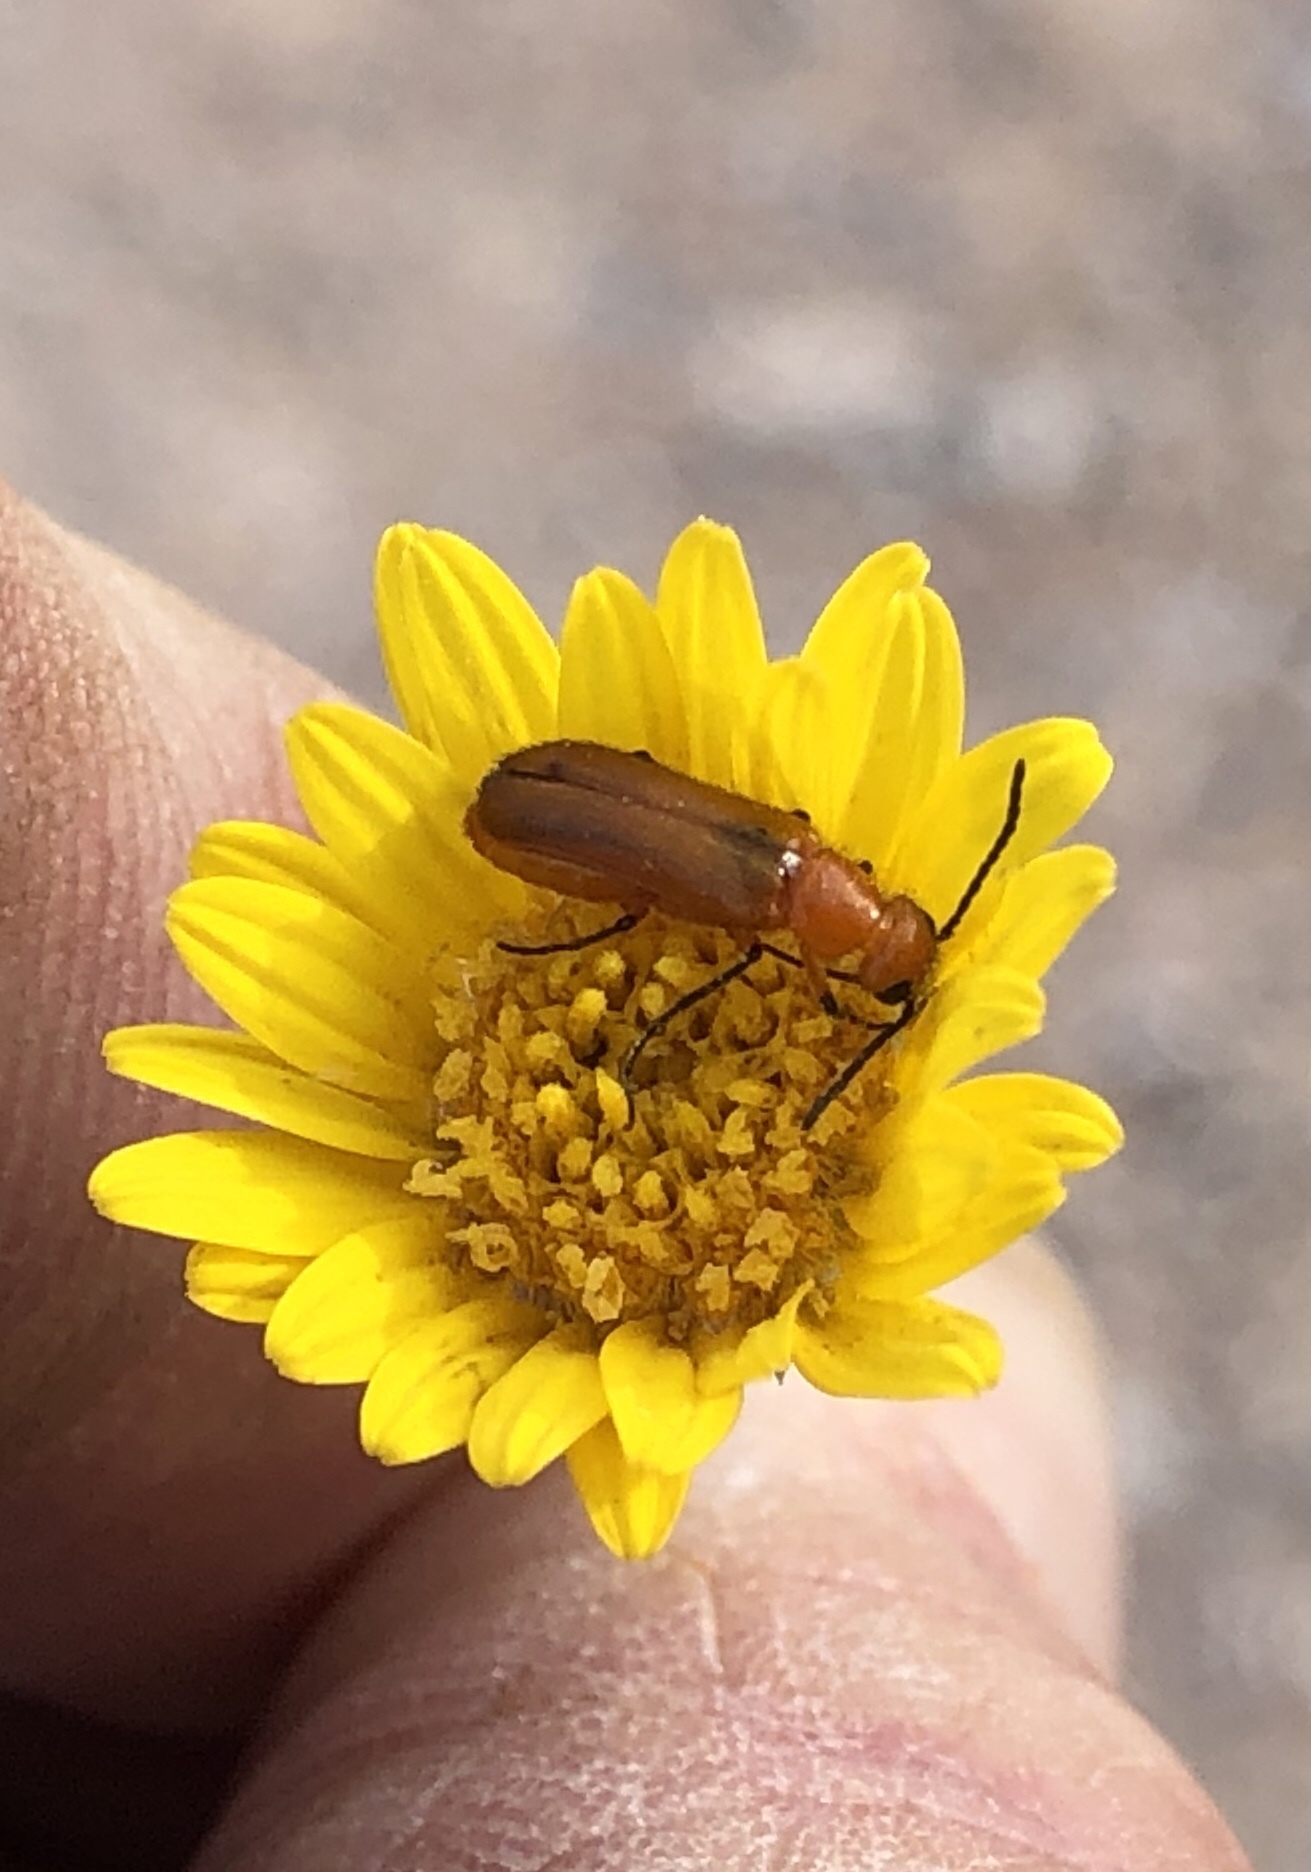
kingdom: Animalia
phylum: Arthropoda
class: Insecta
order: Coleoptera
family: Meloidae
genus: Nemognatha
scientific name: Nemognatha nigripennis
